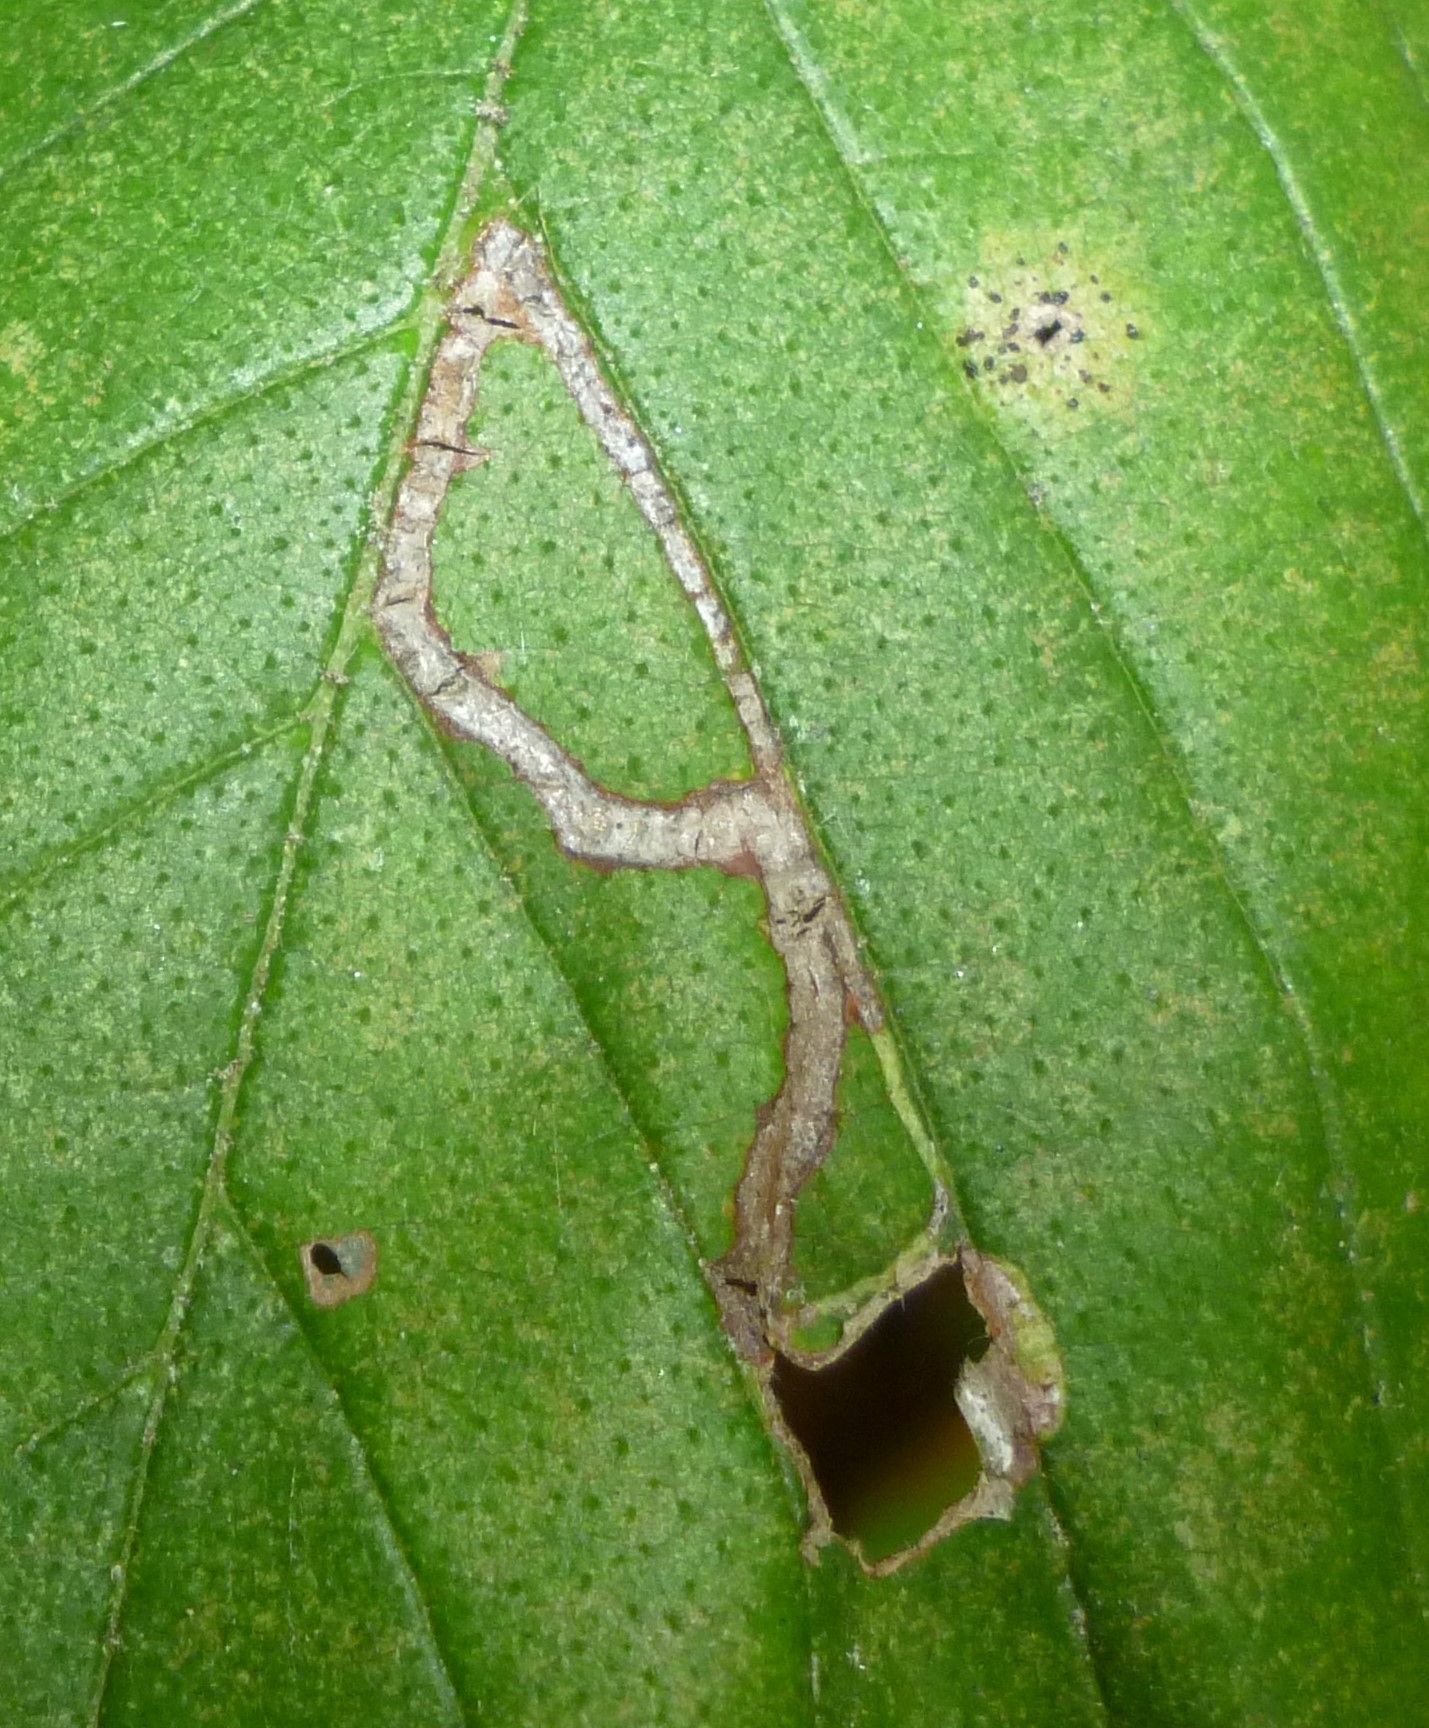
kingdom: Animalia
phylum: Arthropoda
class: Insecta
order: Diptera
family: Agromyzidae
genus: Agromyza
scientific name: Agromyza aristata
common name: Elm agromyzid leafminer
